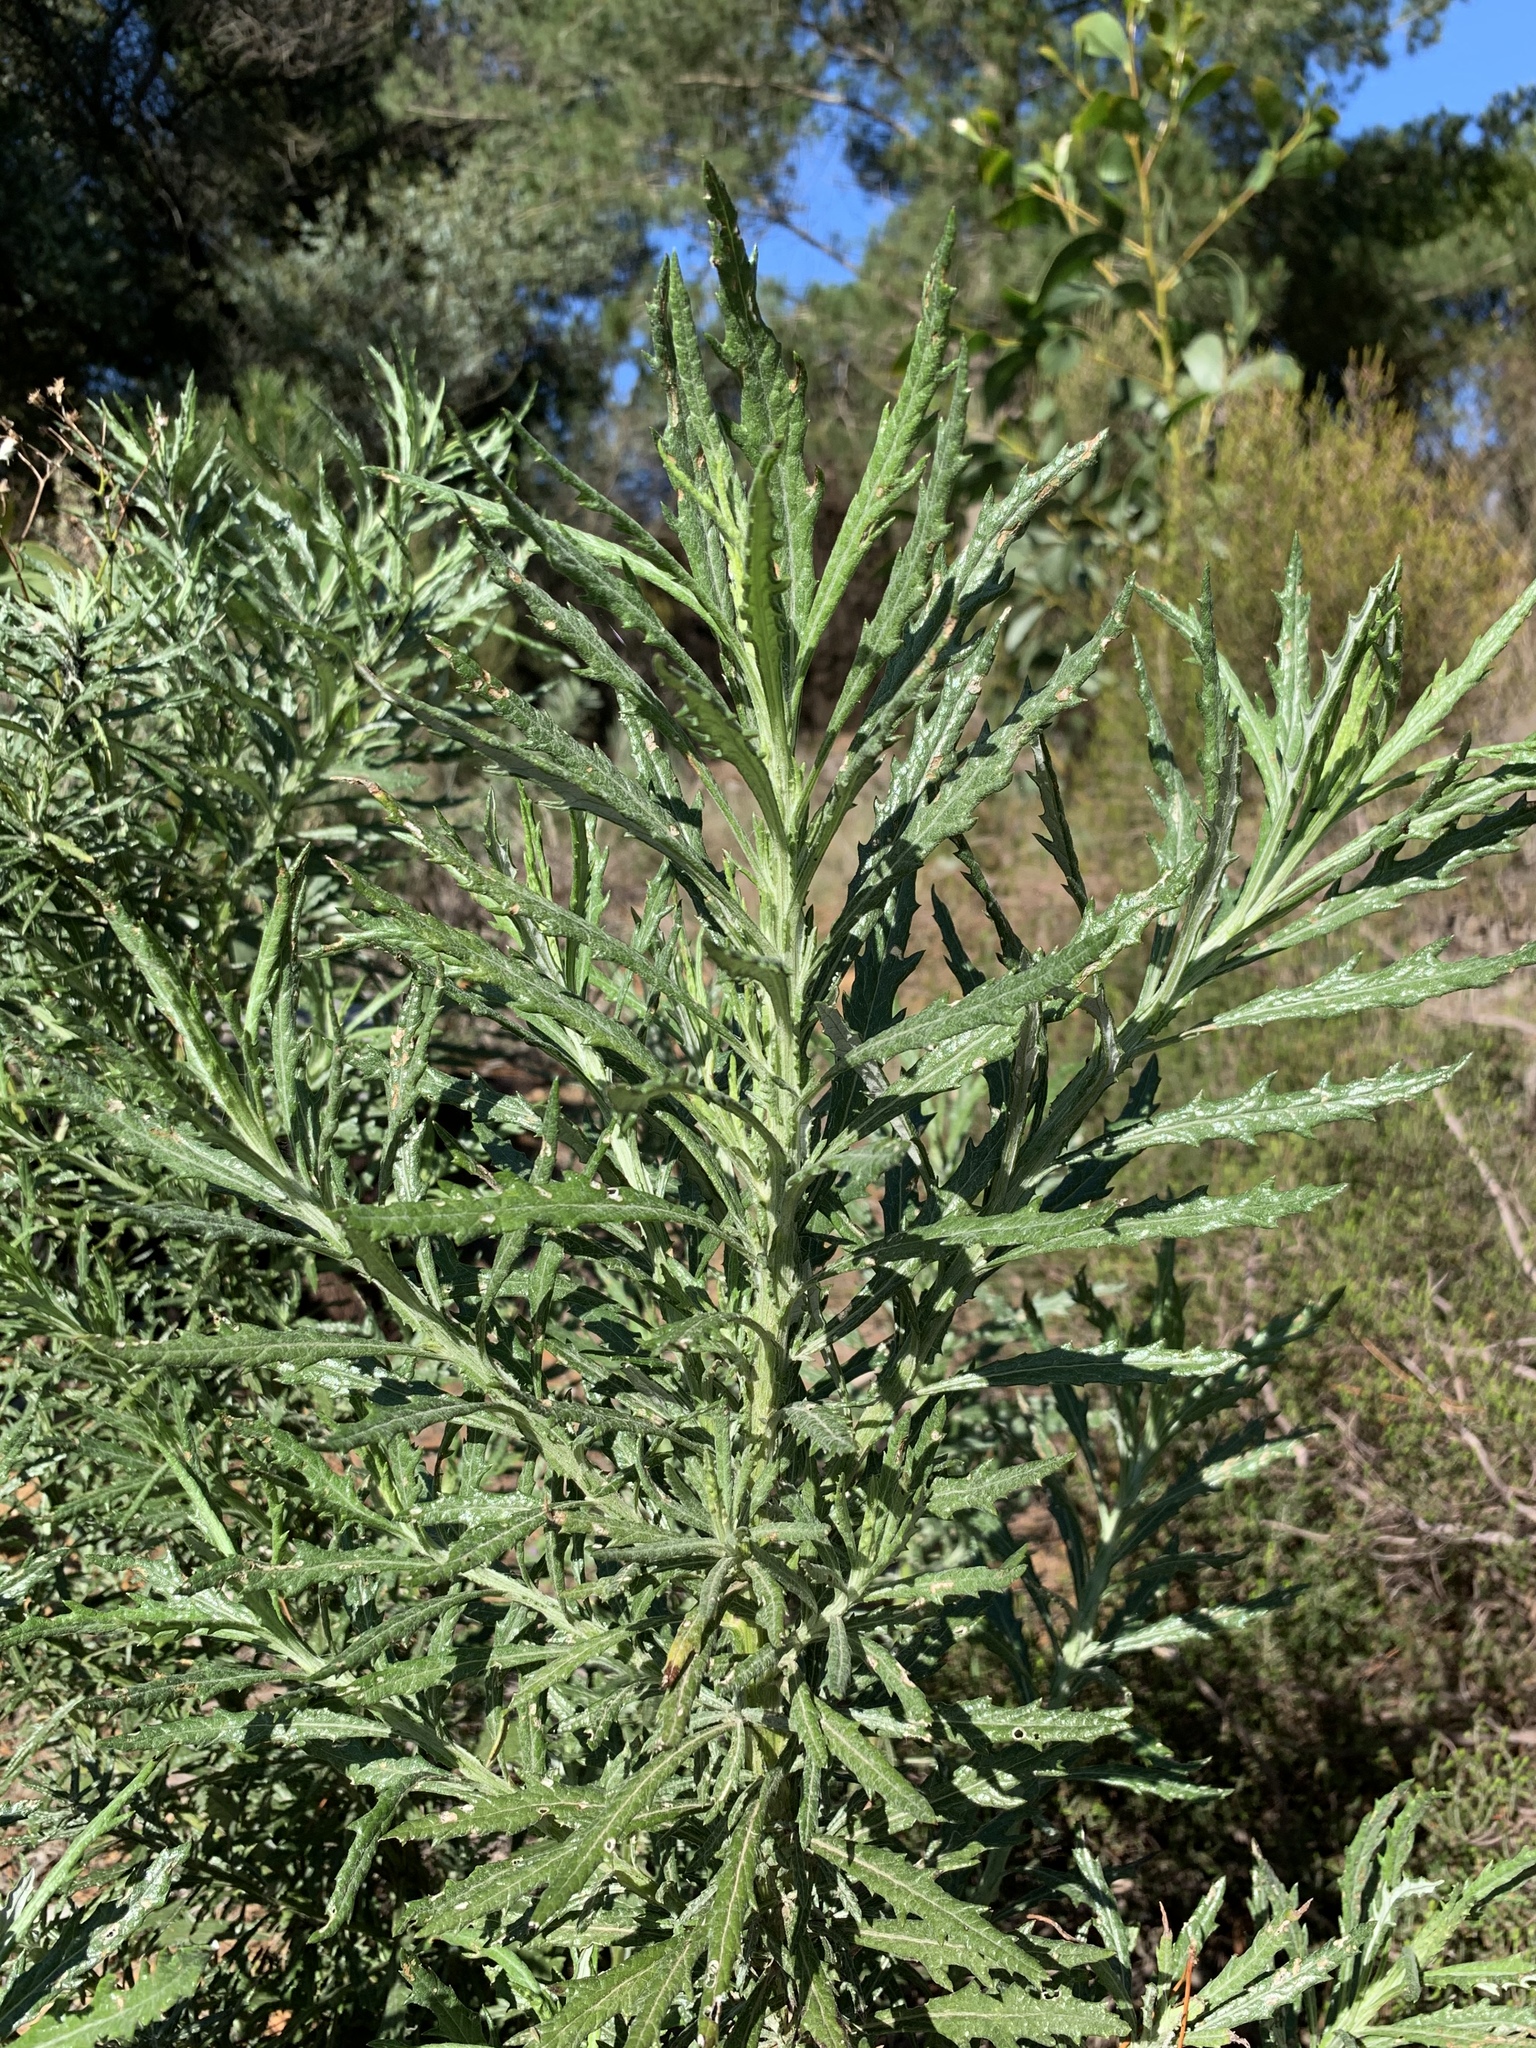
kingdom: Plantae
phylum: Tracheophyta
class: Magnoliopsida
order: Asterales
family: Asteraceae
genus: Senecio
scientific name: Senecio pterophorus
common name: Shoddy ragwort
